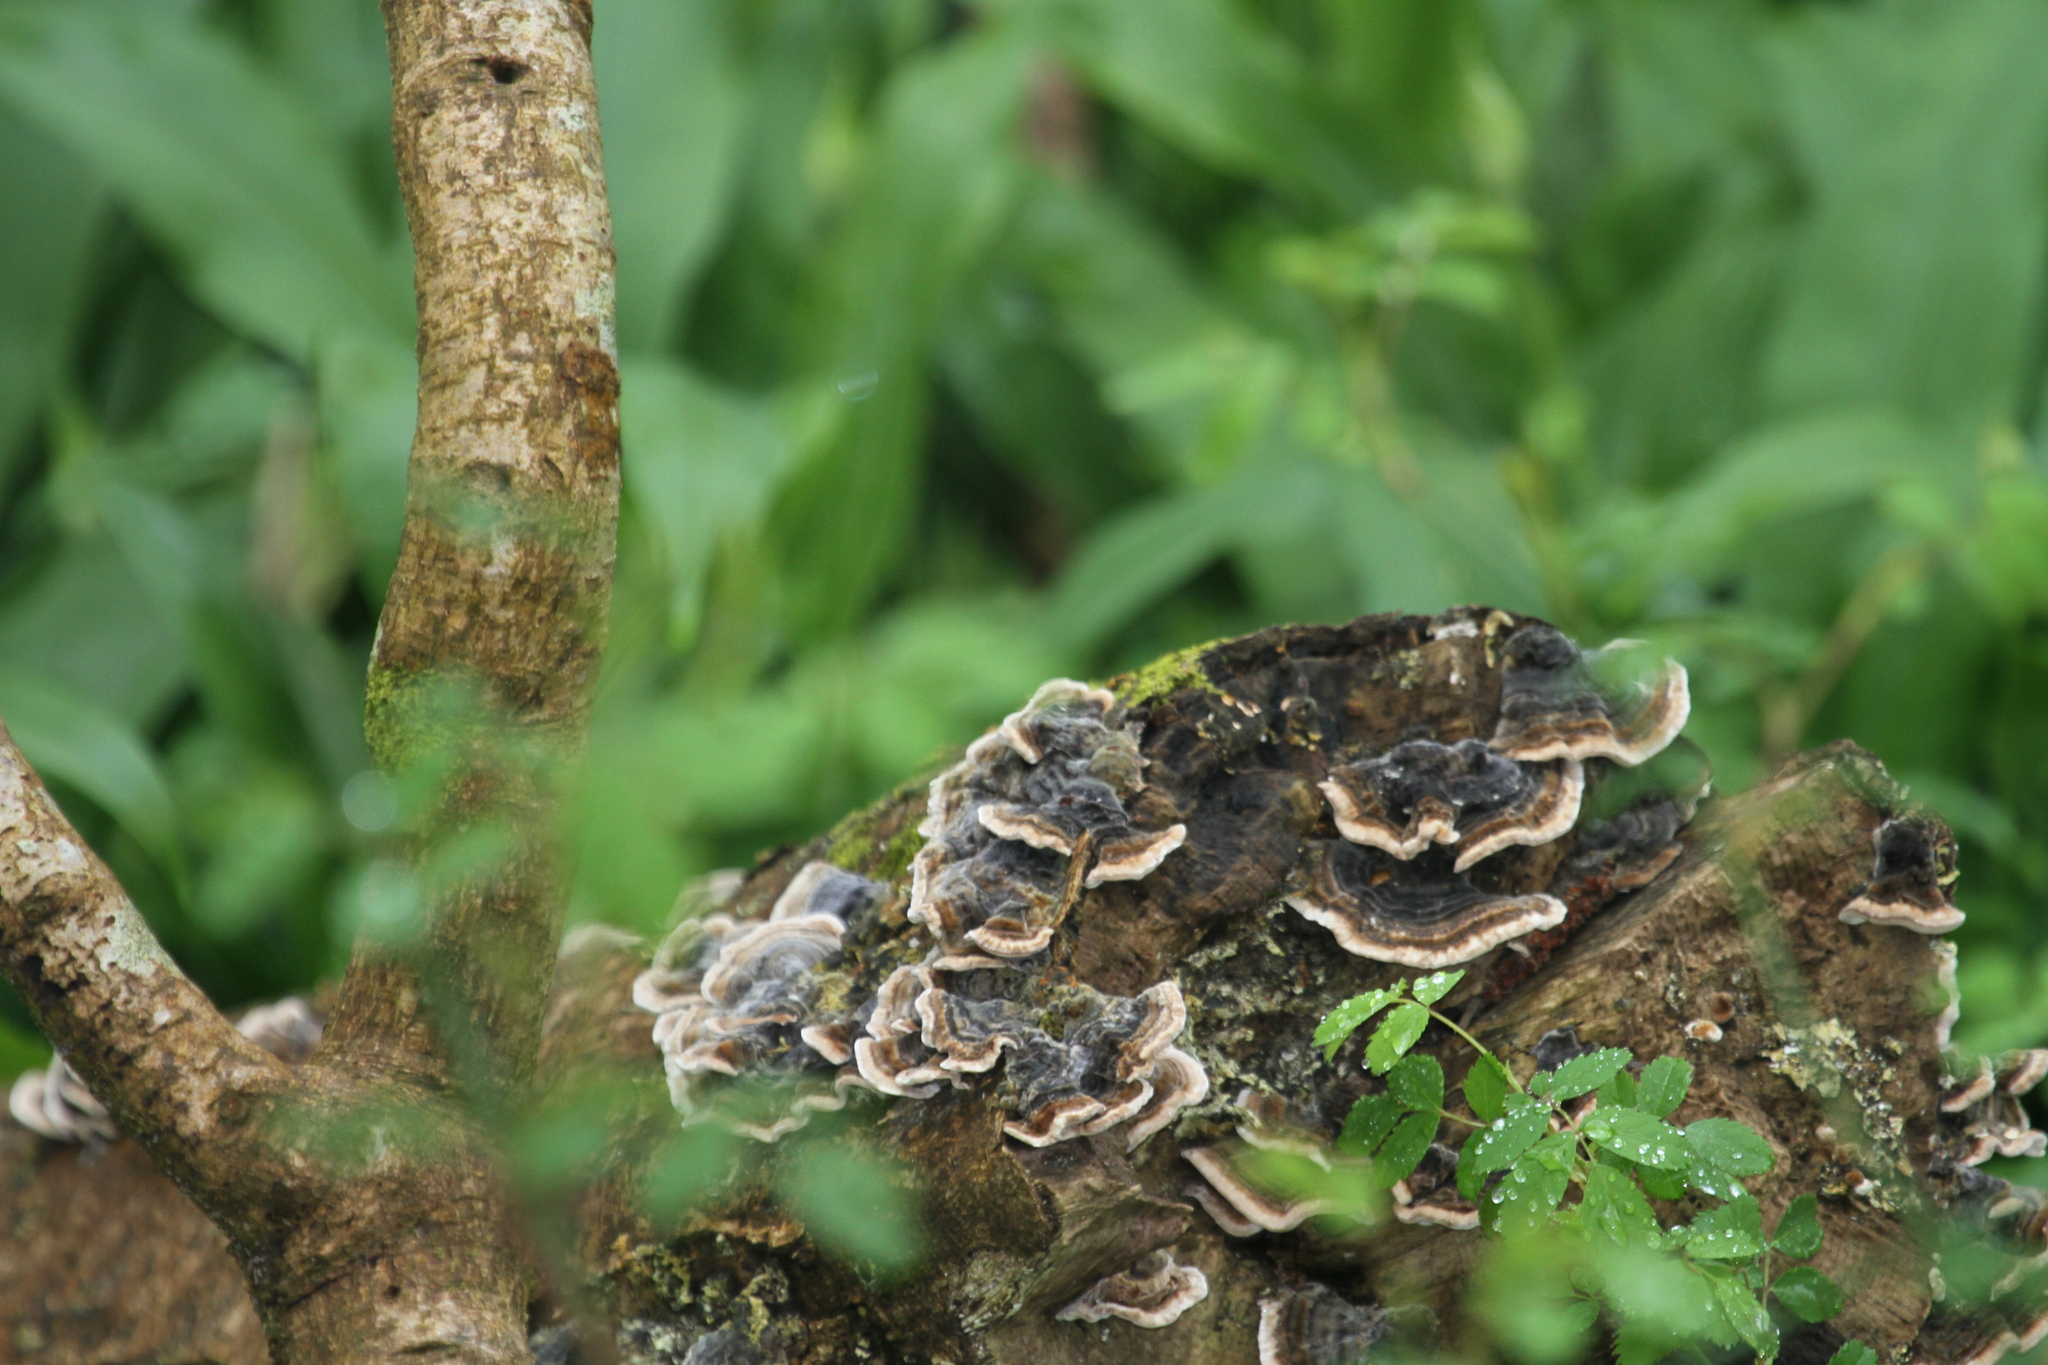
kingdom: Fungi
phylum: Basidiomycota
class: Agaricomycetes
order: Polyporales
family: Polyporaceae
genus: Trametes
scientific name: Trametes versicolor
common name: Turkeytail
